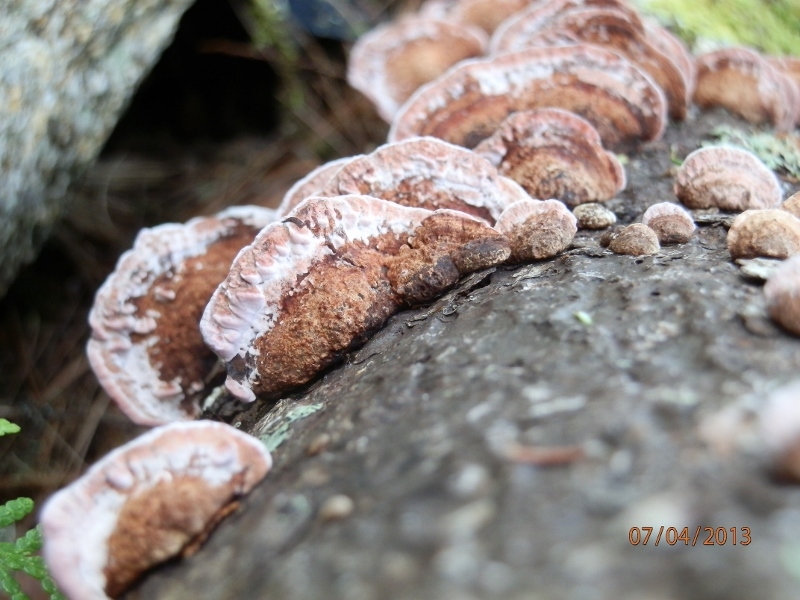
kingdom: Fungi
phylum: Basidiomycota
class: Agaricomycetes
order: Polyporales
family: Fomitopsidaceae
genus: Rhodofomes
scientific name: Rhodofomes cajanderi
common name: Rosy conk
